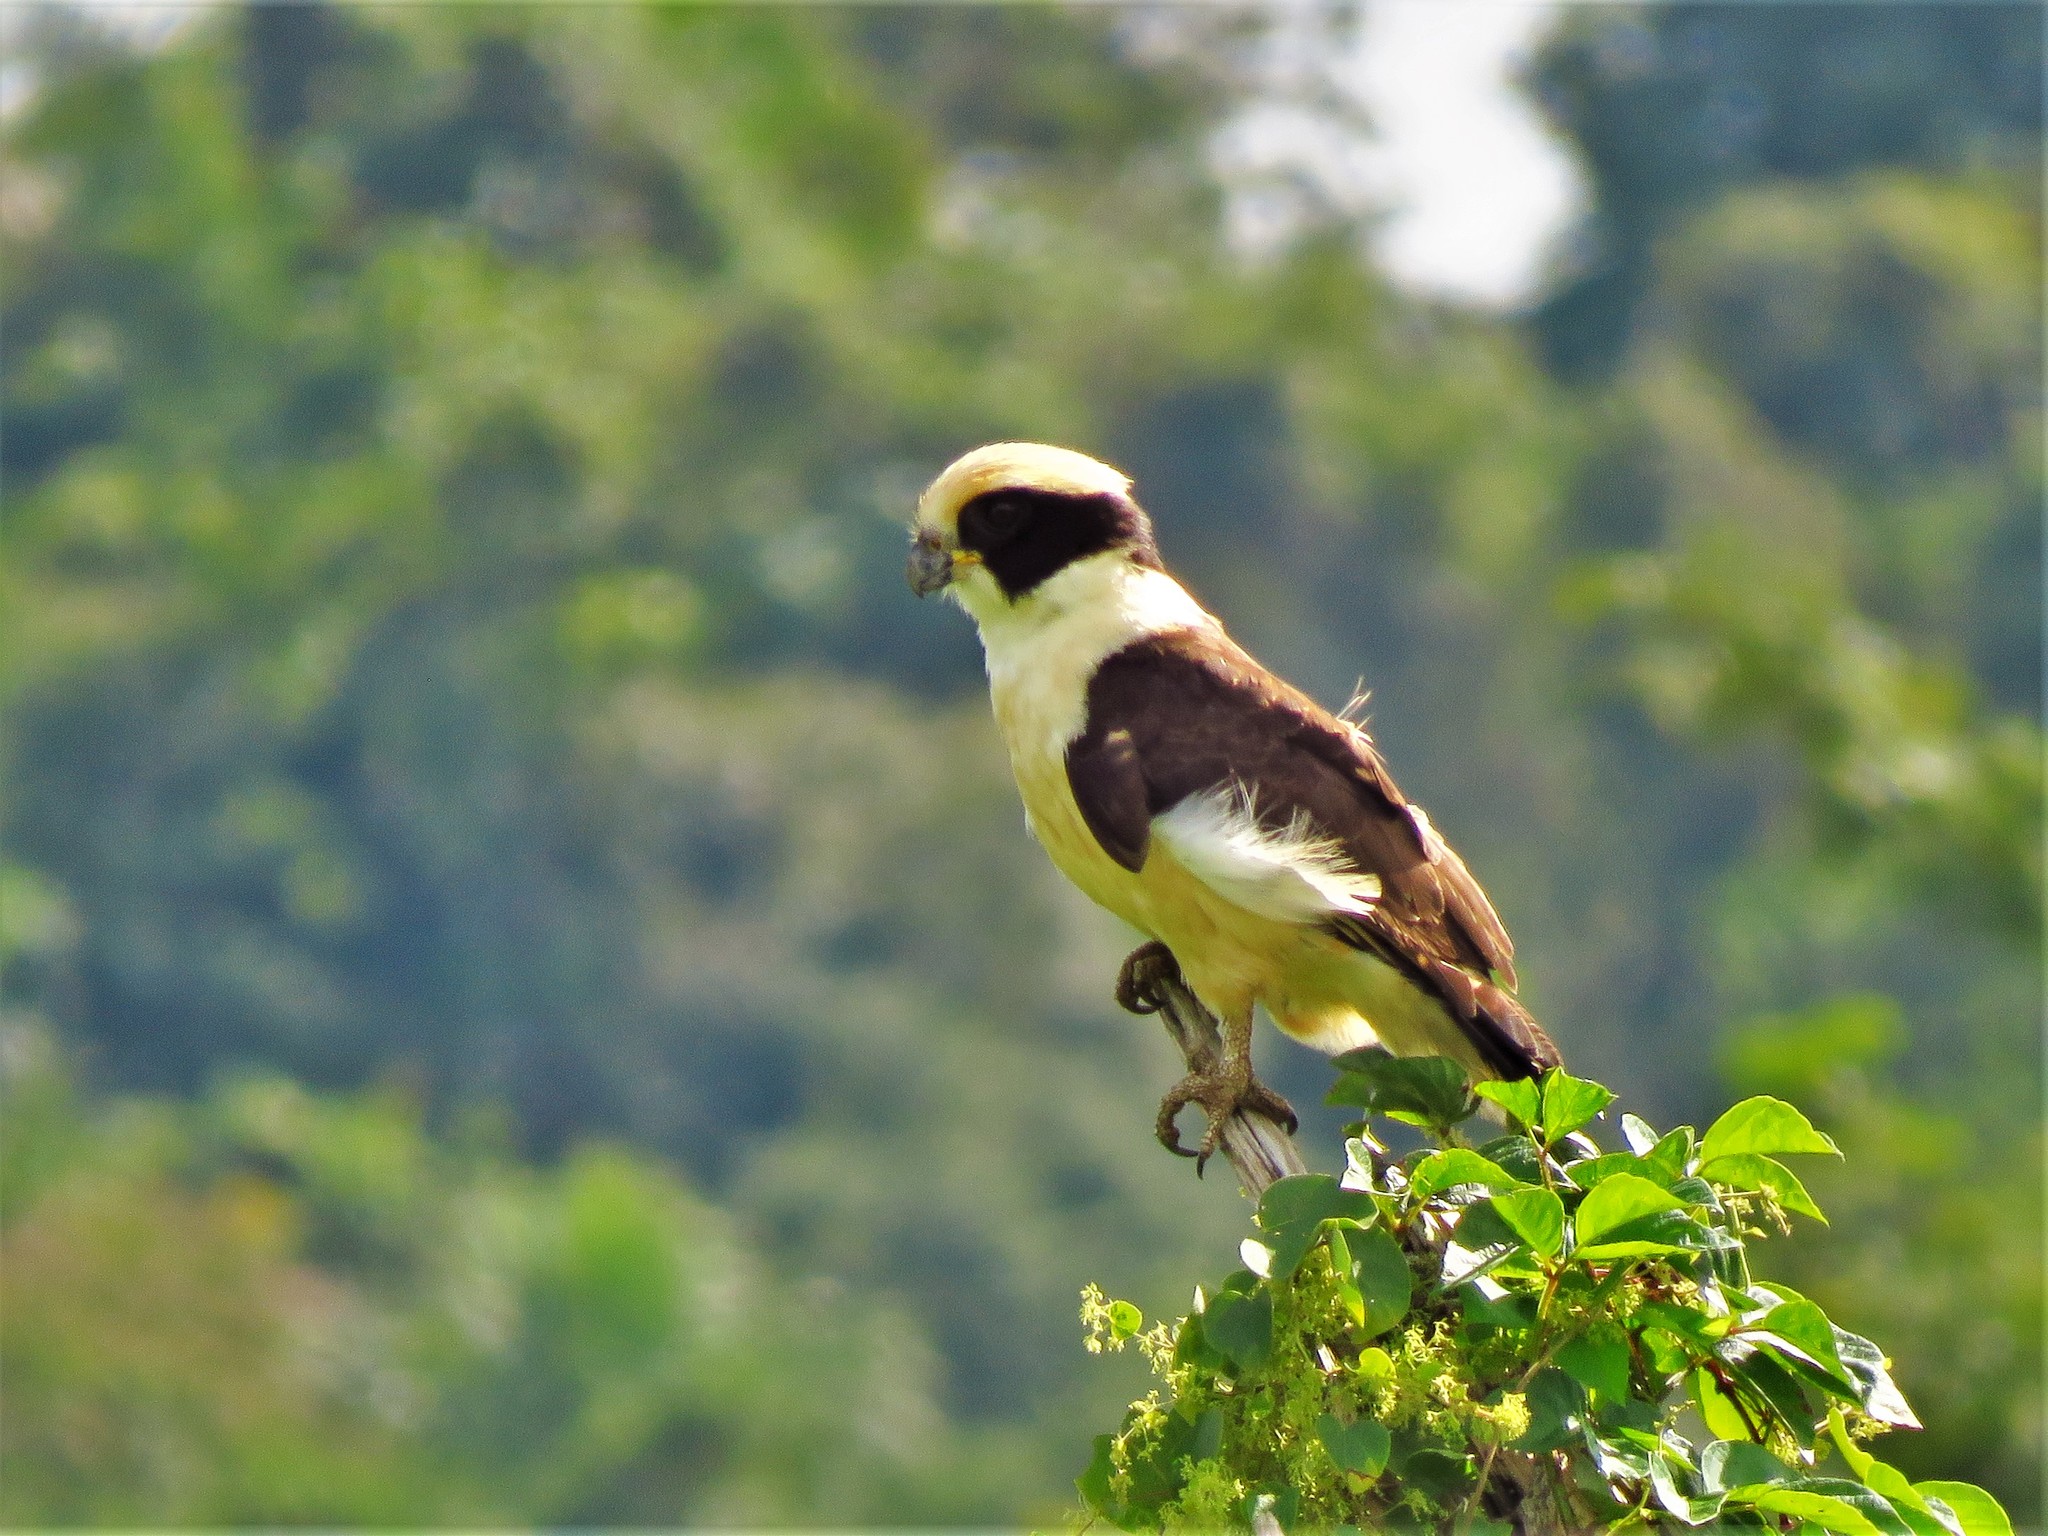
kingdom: Animalia
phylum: Chordata
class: Aves
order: Falconiformes
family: Falconidae
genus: Herpetotheres
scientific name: Herpetotheres cachinnans
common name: Laughing falcon
